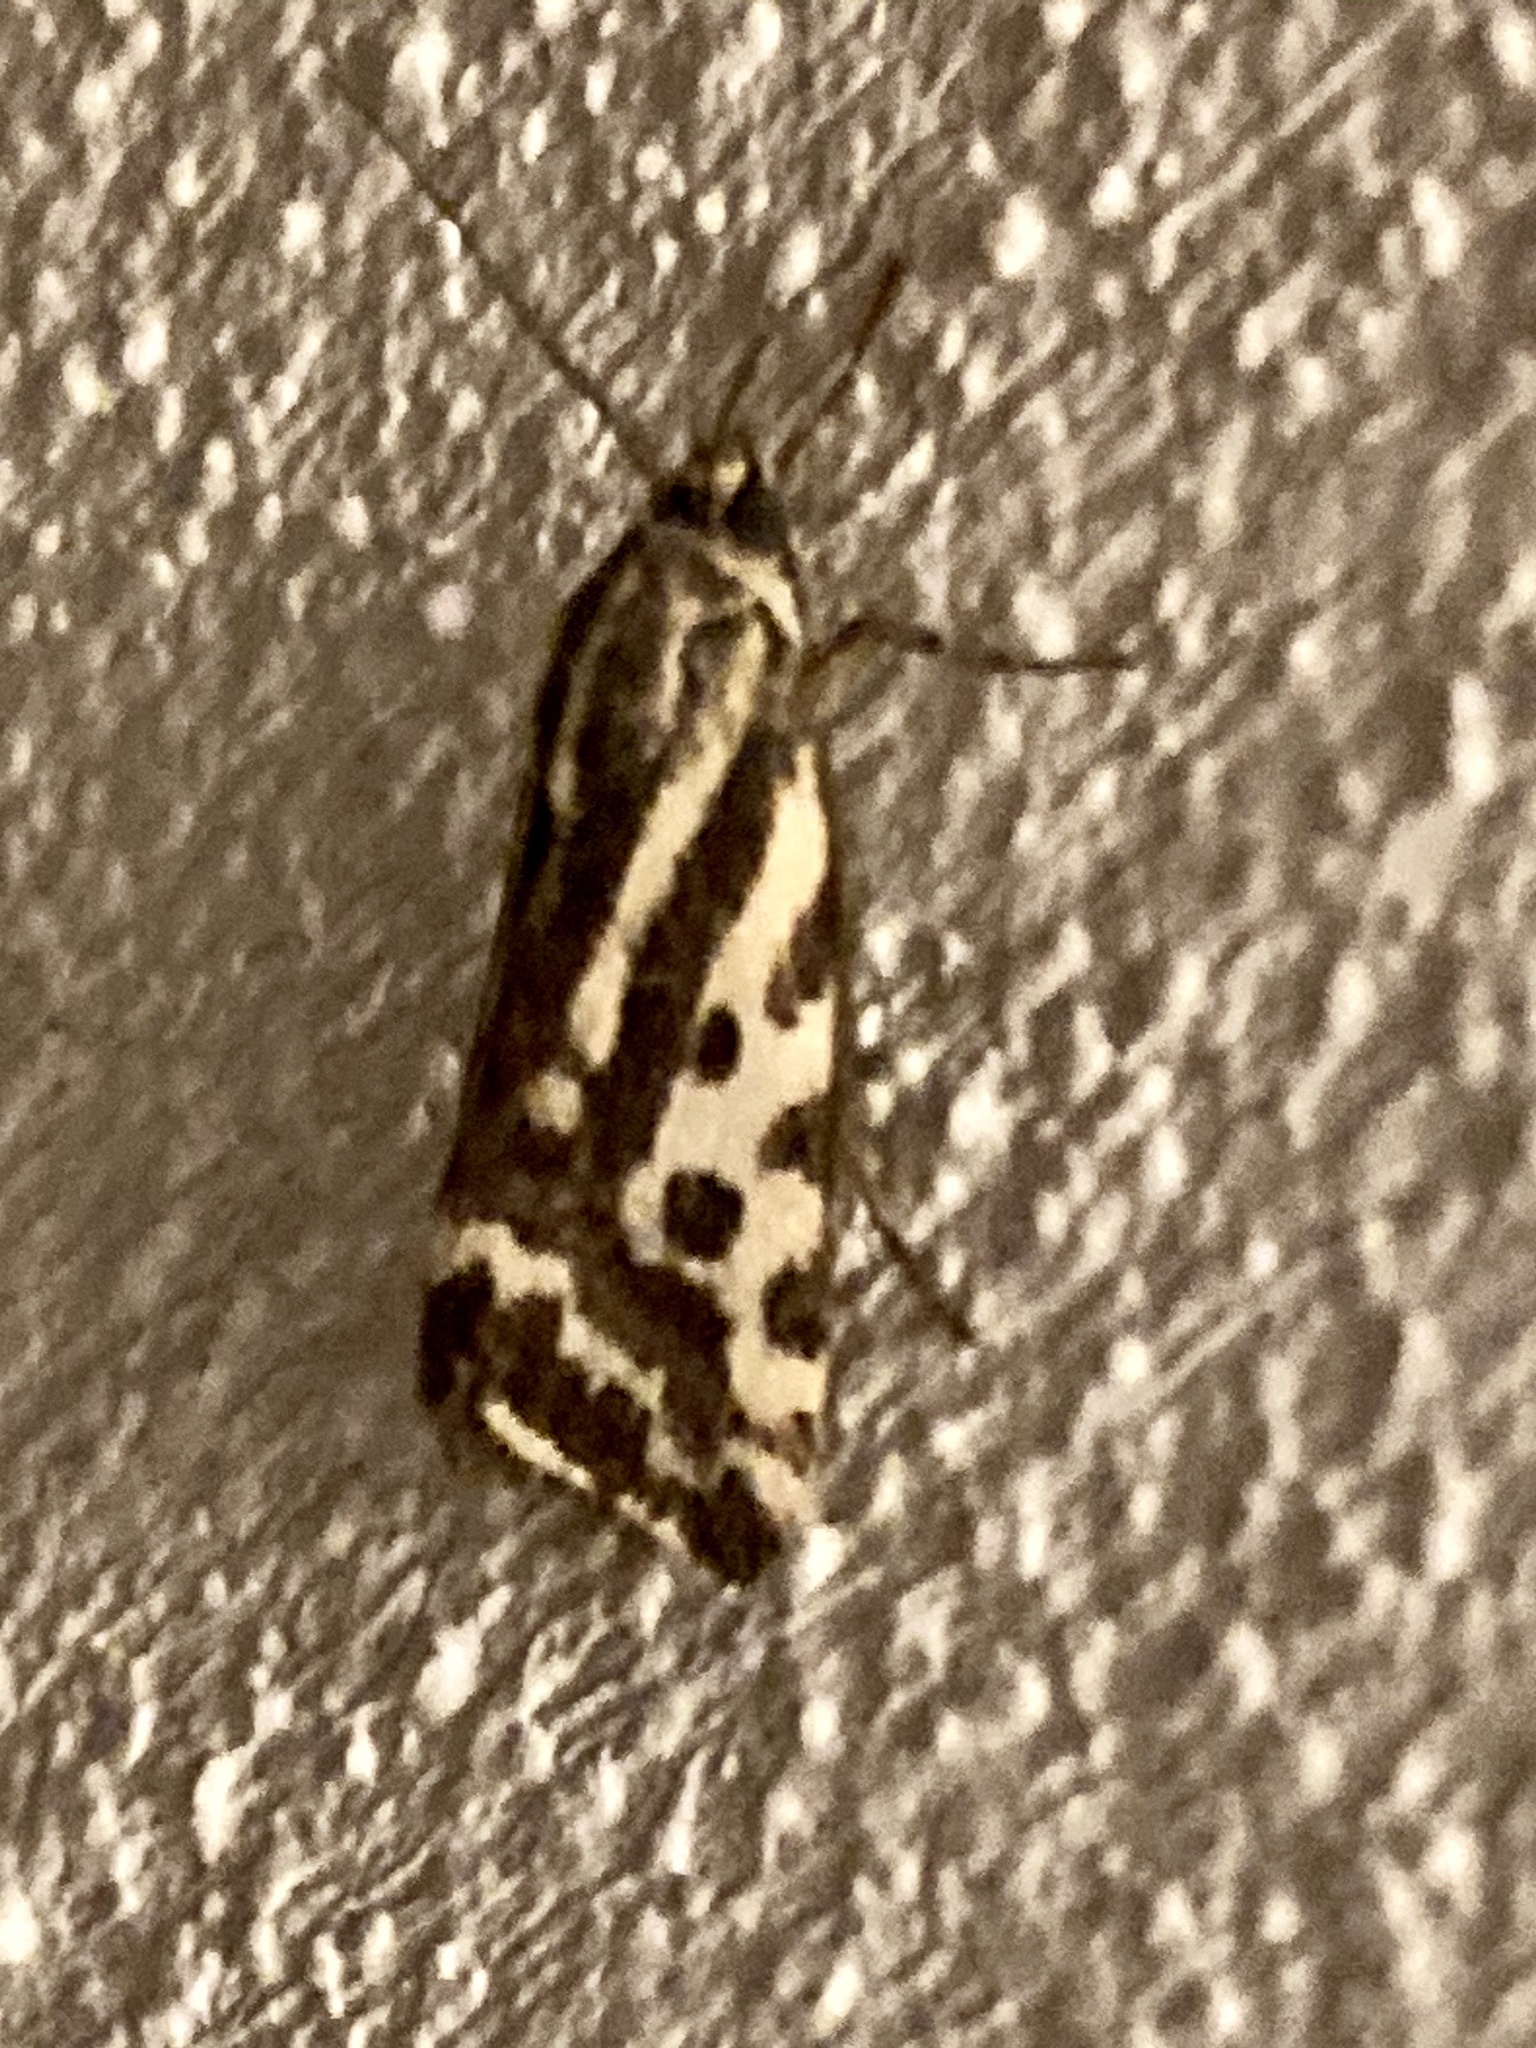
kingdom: Animalia
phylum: Arthropoda
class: Insecta
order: Lepidoptera
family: Noctuidae
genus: Acontia
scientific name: Acontia trabealis
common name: Spotted sulphur
